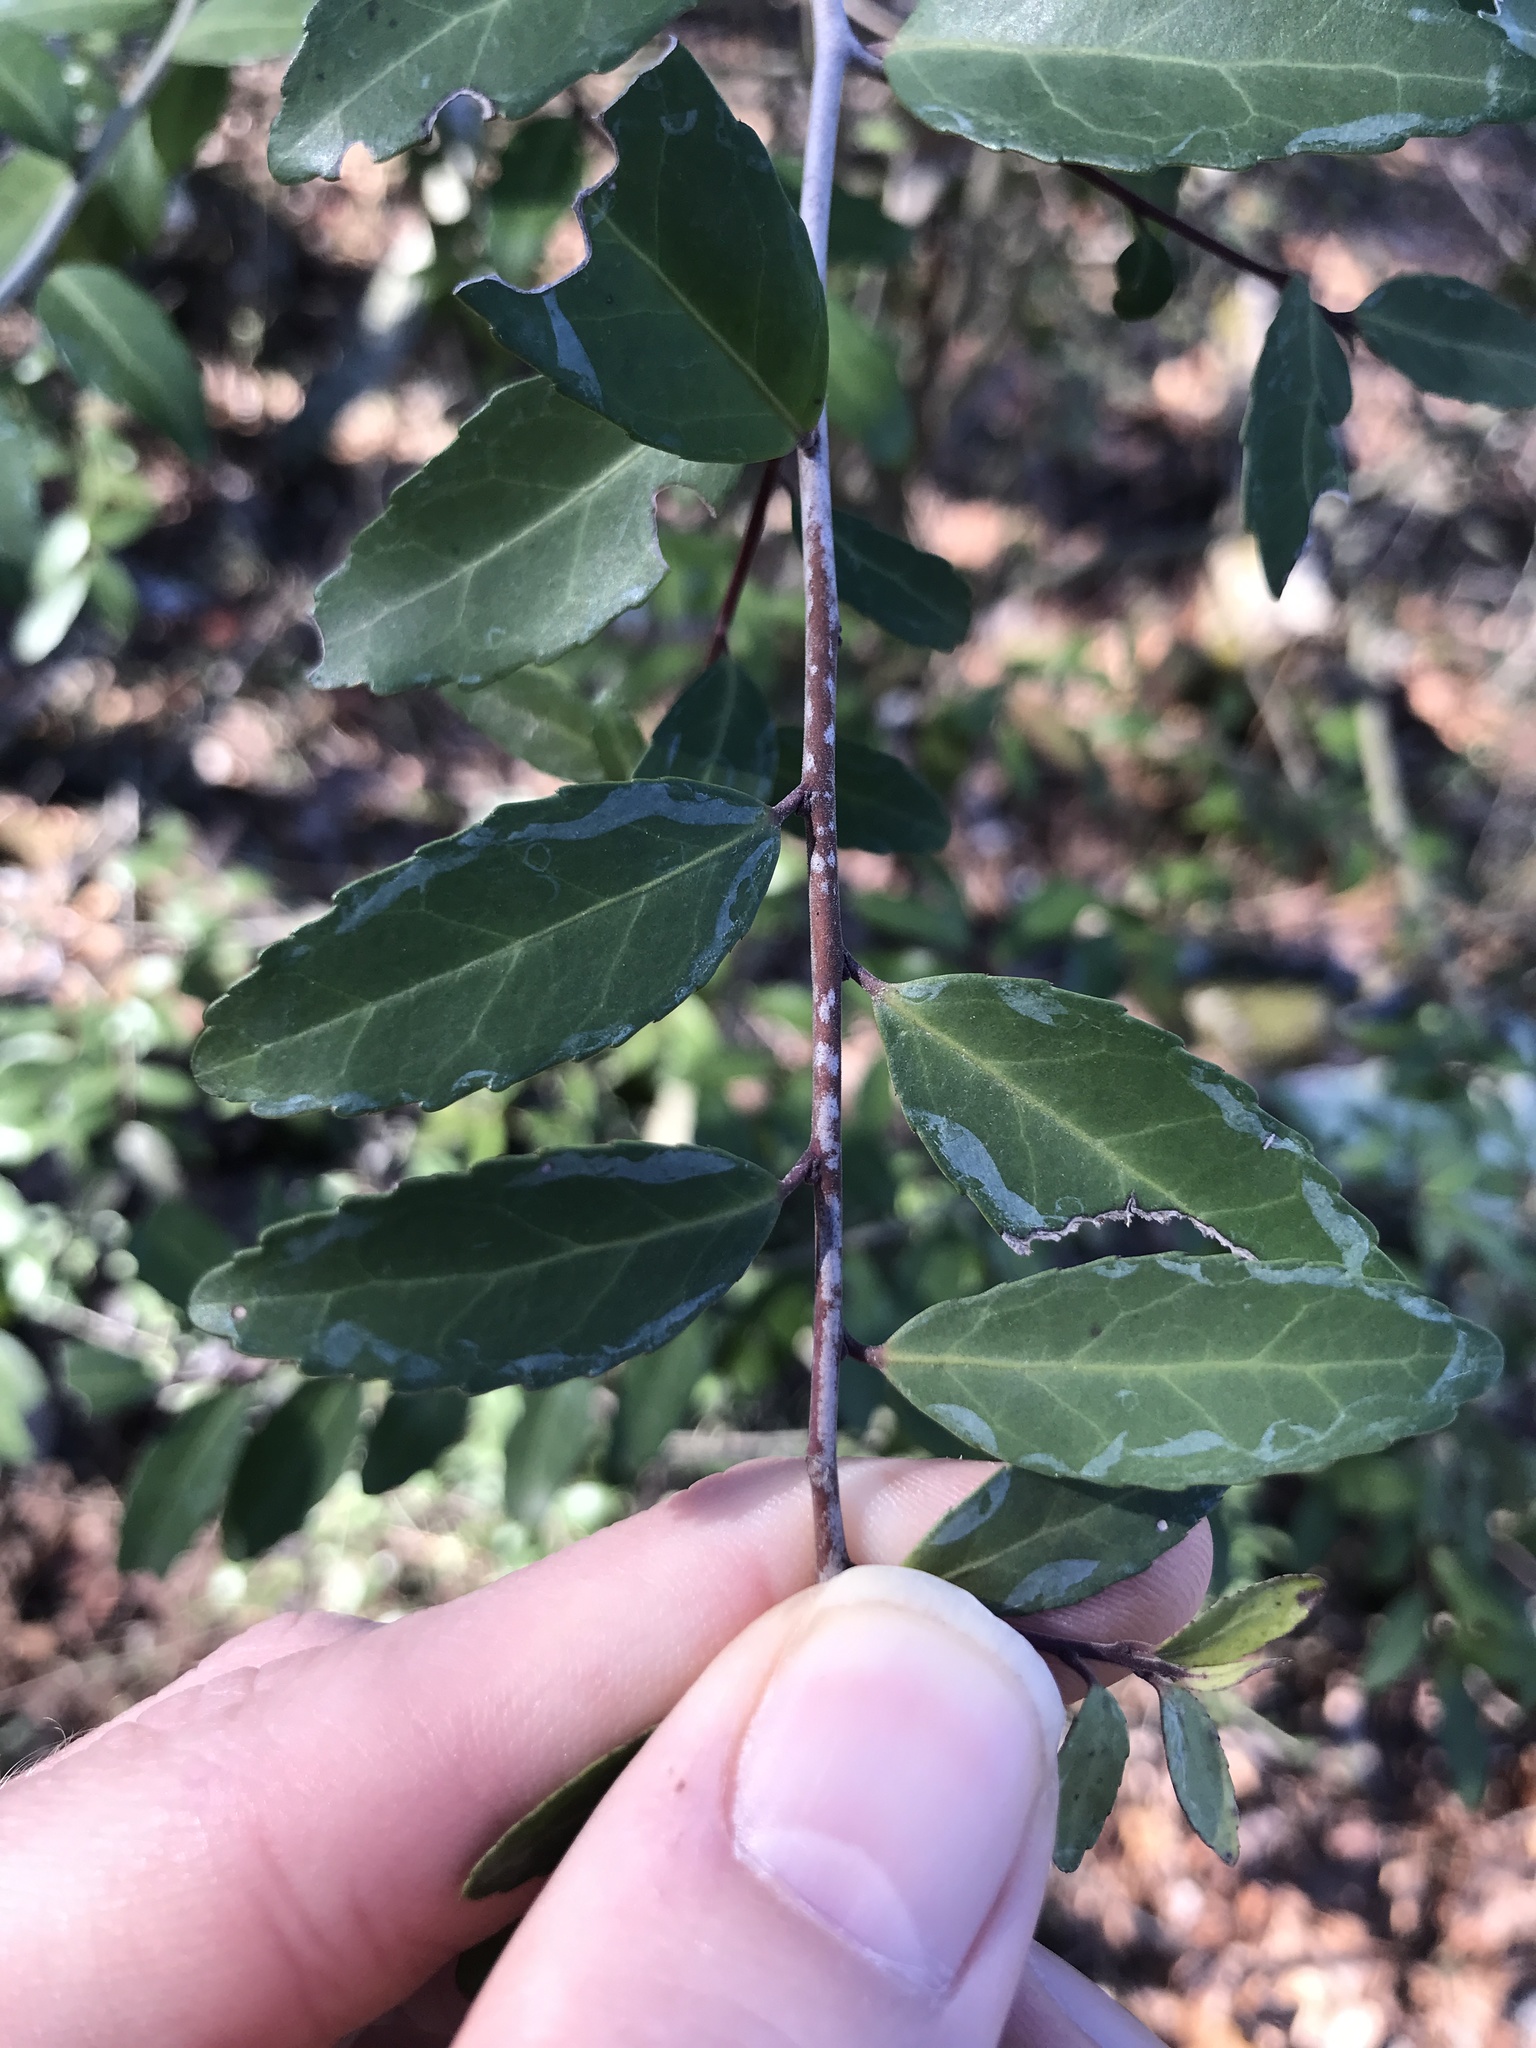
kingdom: Plantae
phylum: Tracheophyta
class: Magnoliopsida
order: Aquifoliales
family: Aquifoliaceae
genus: Ilex
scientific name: Ilex vomitoria
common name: Yaupon holly
